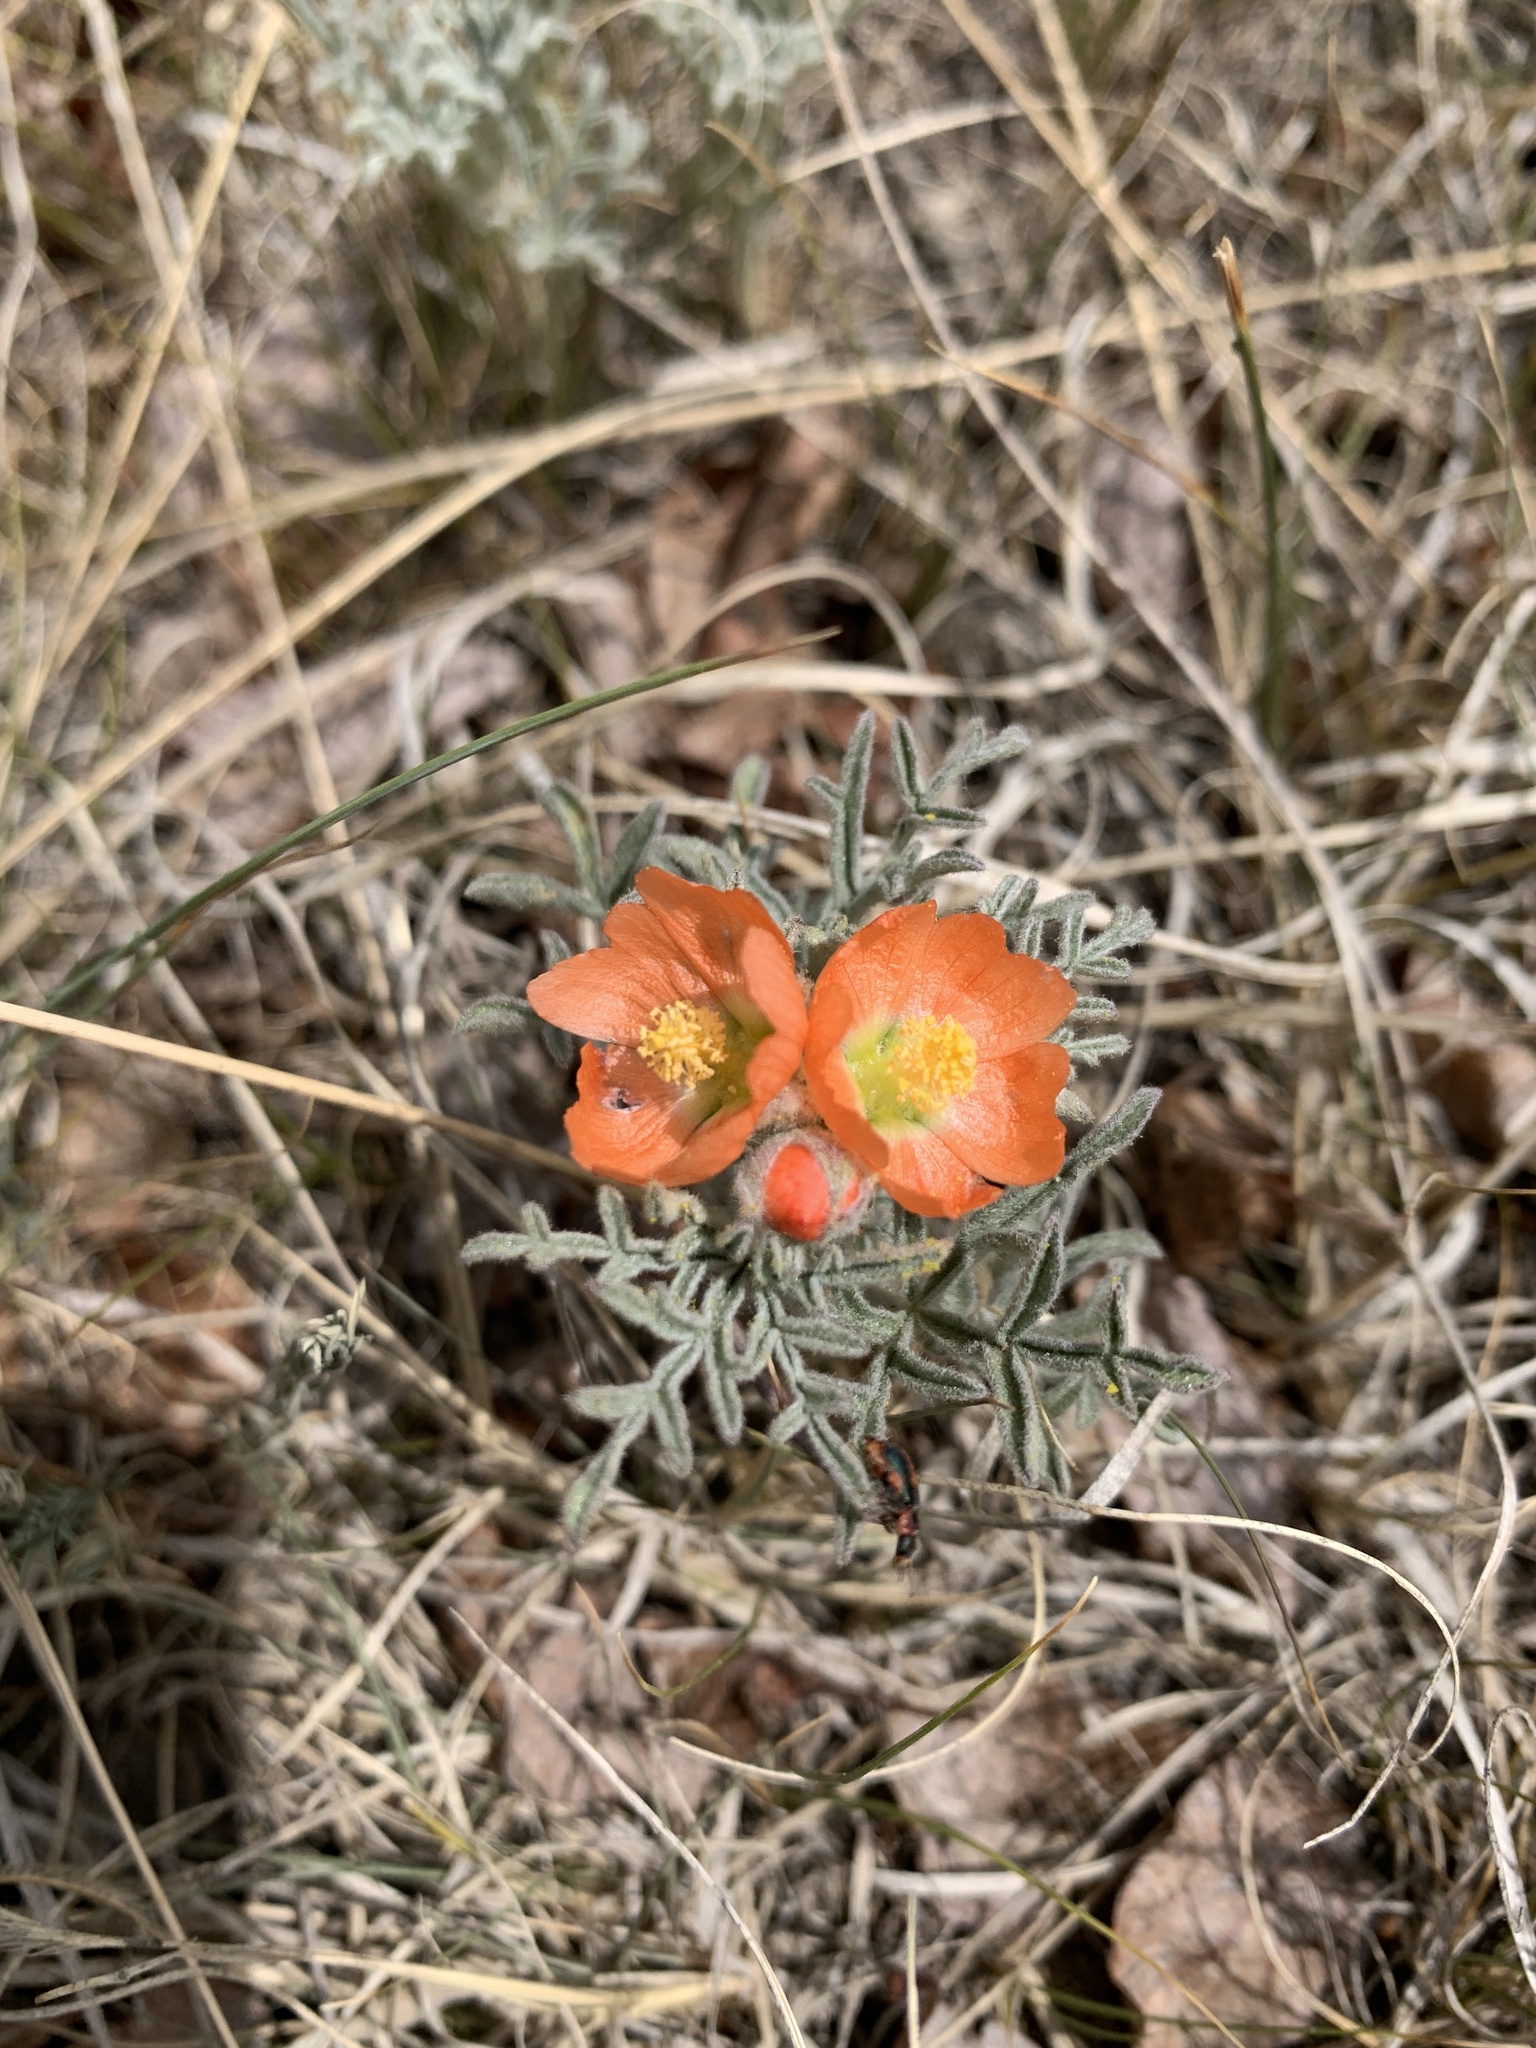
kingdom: Plantae
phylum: Tracheophyta
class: Magnoliopsida
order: Malvales
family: Malvaceae
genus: Sphaeralcea
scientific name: Sphaeralcea coccinea
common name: Moss-rose
